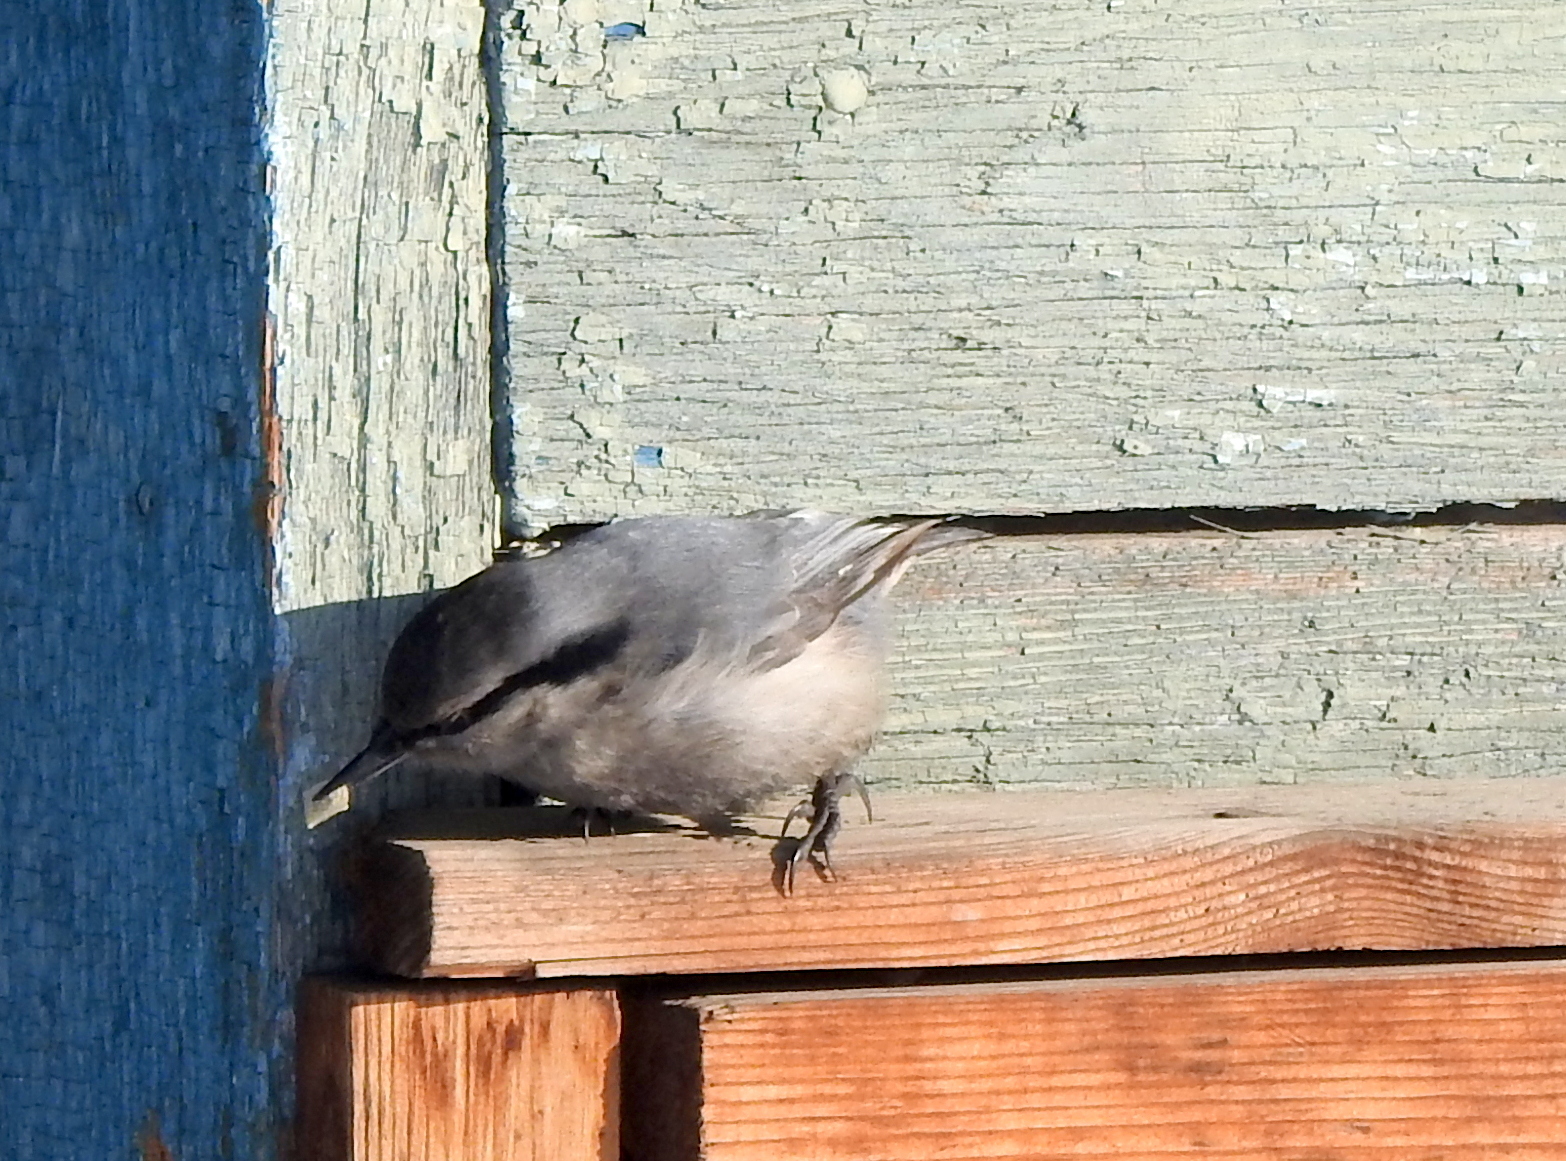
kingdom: Animalia
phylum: Chordata
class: Aves
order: Passeriformes
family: Sittidae
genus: Sitta
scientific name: Sitta europaea
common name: Eurasian nuthatch
